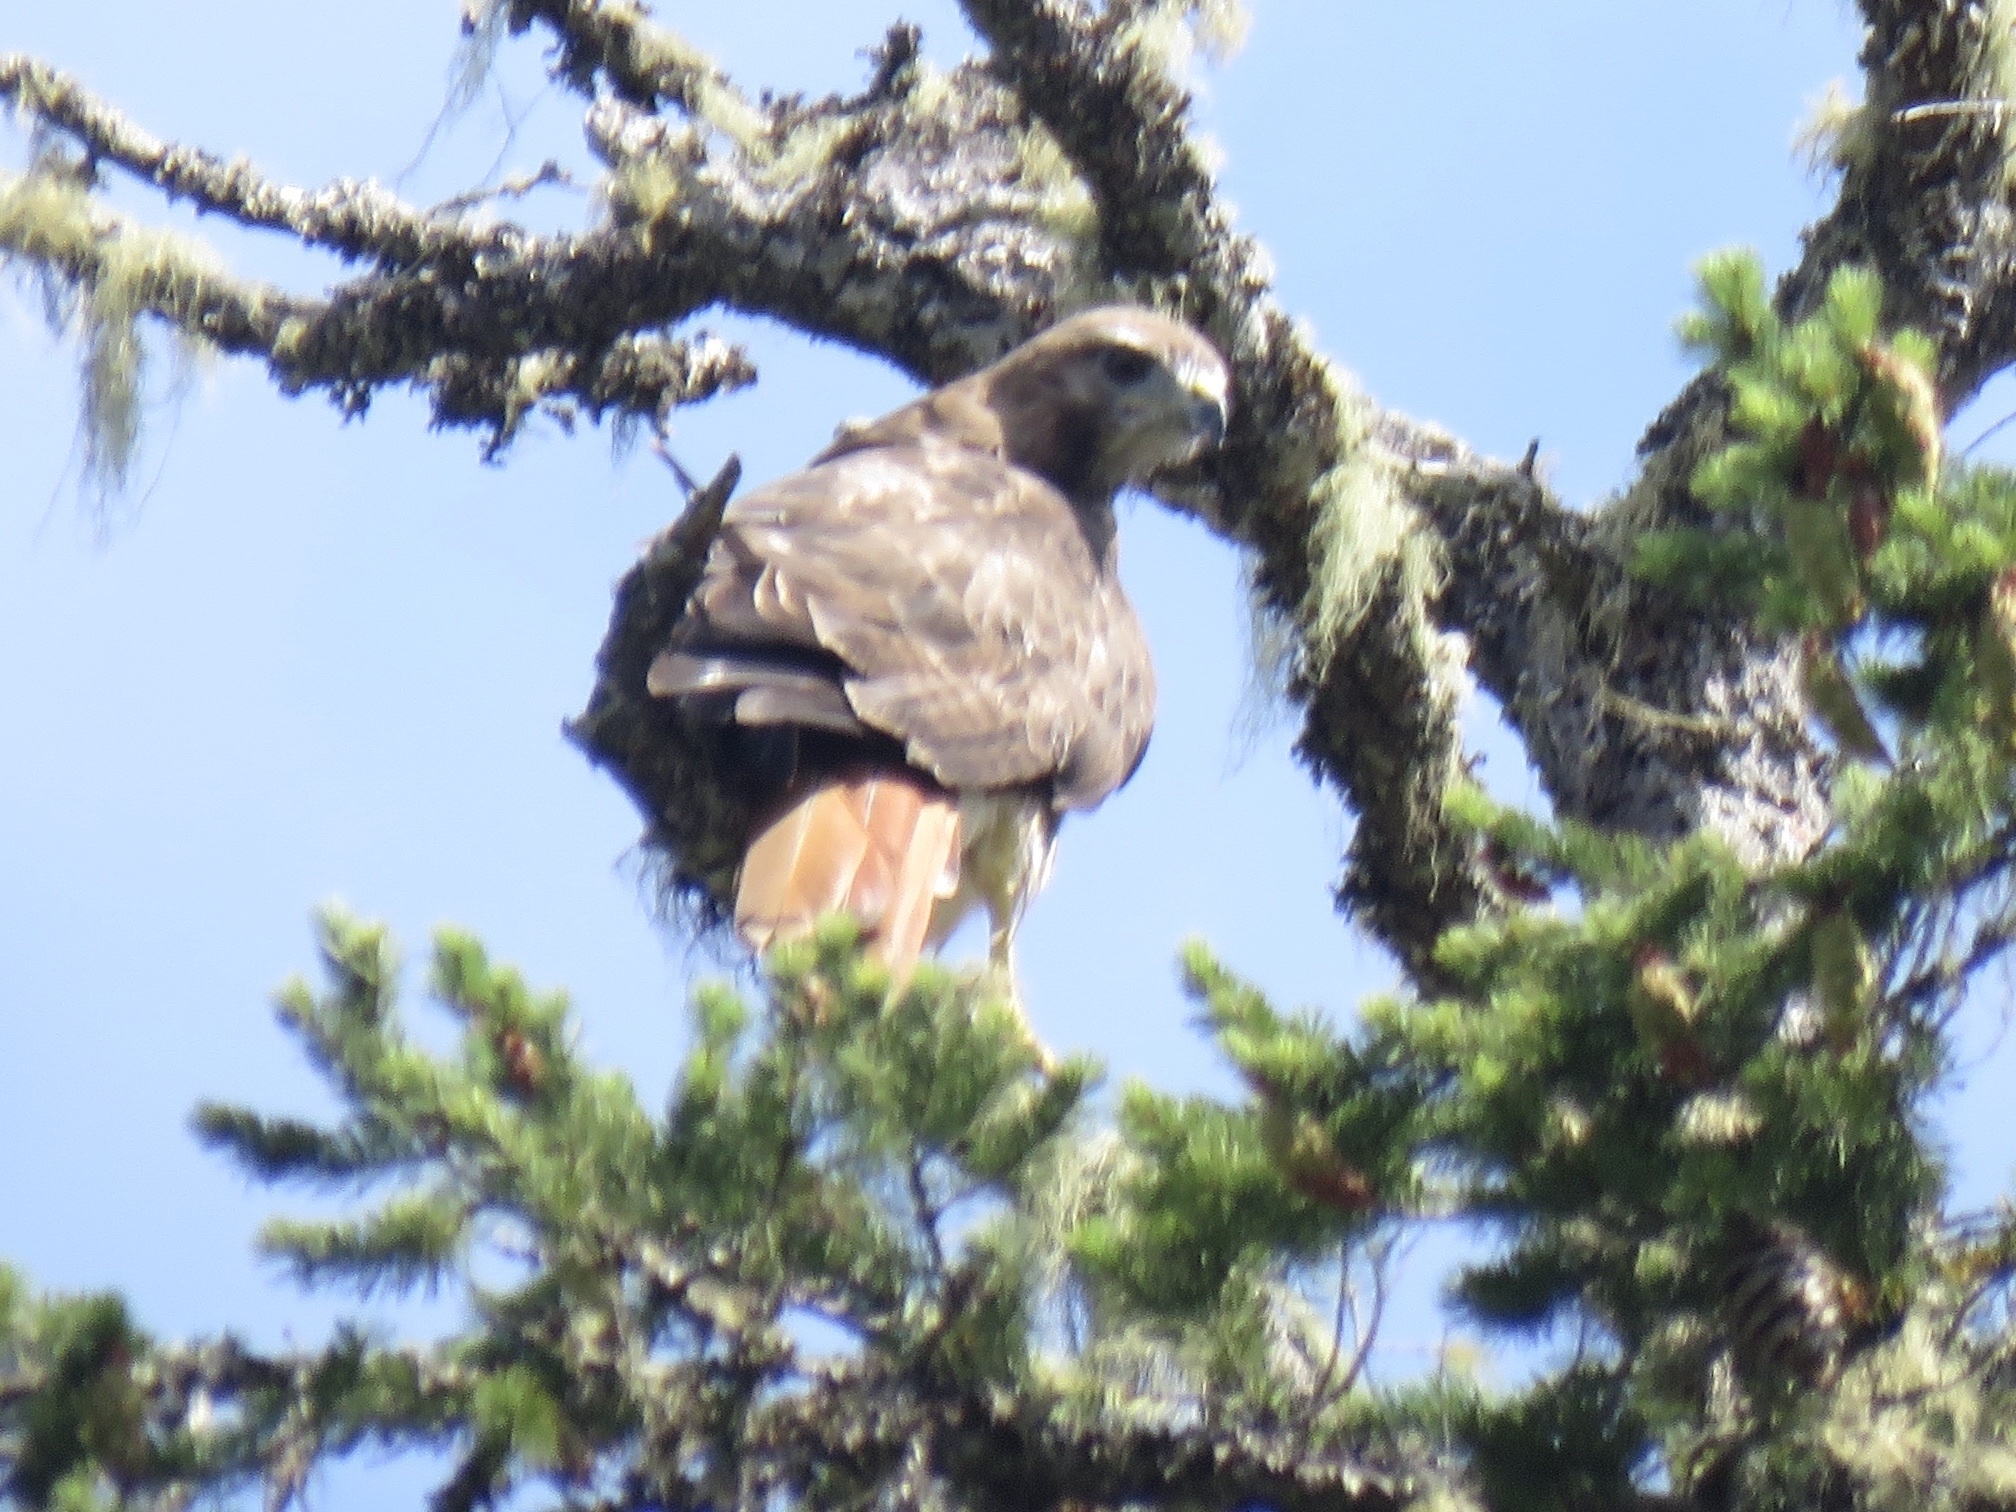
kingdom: Animalia
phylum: Chordata
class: Aves
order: Accipitriformes
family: Accipitridae
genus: Buteo
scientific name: Buteo jamaicensis
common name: Red-tailed hawk
